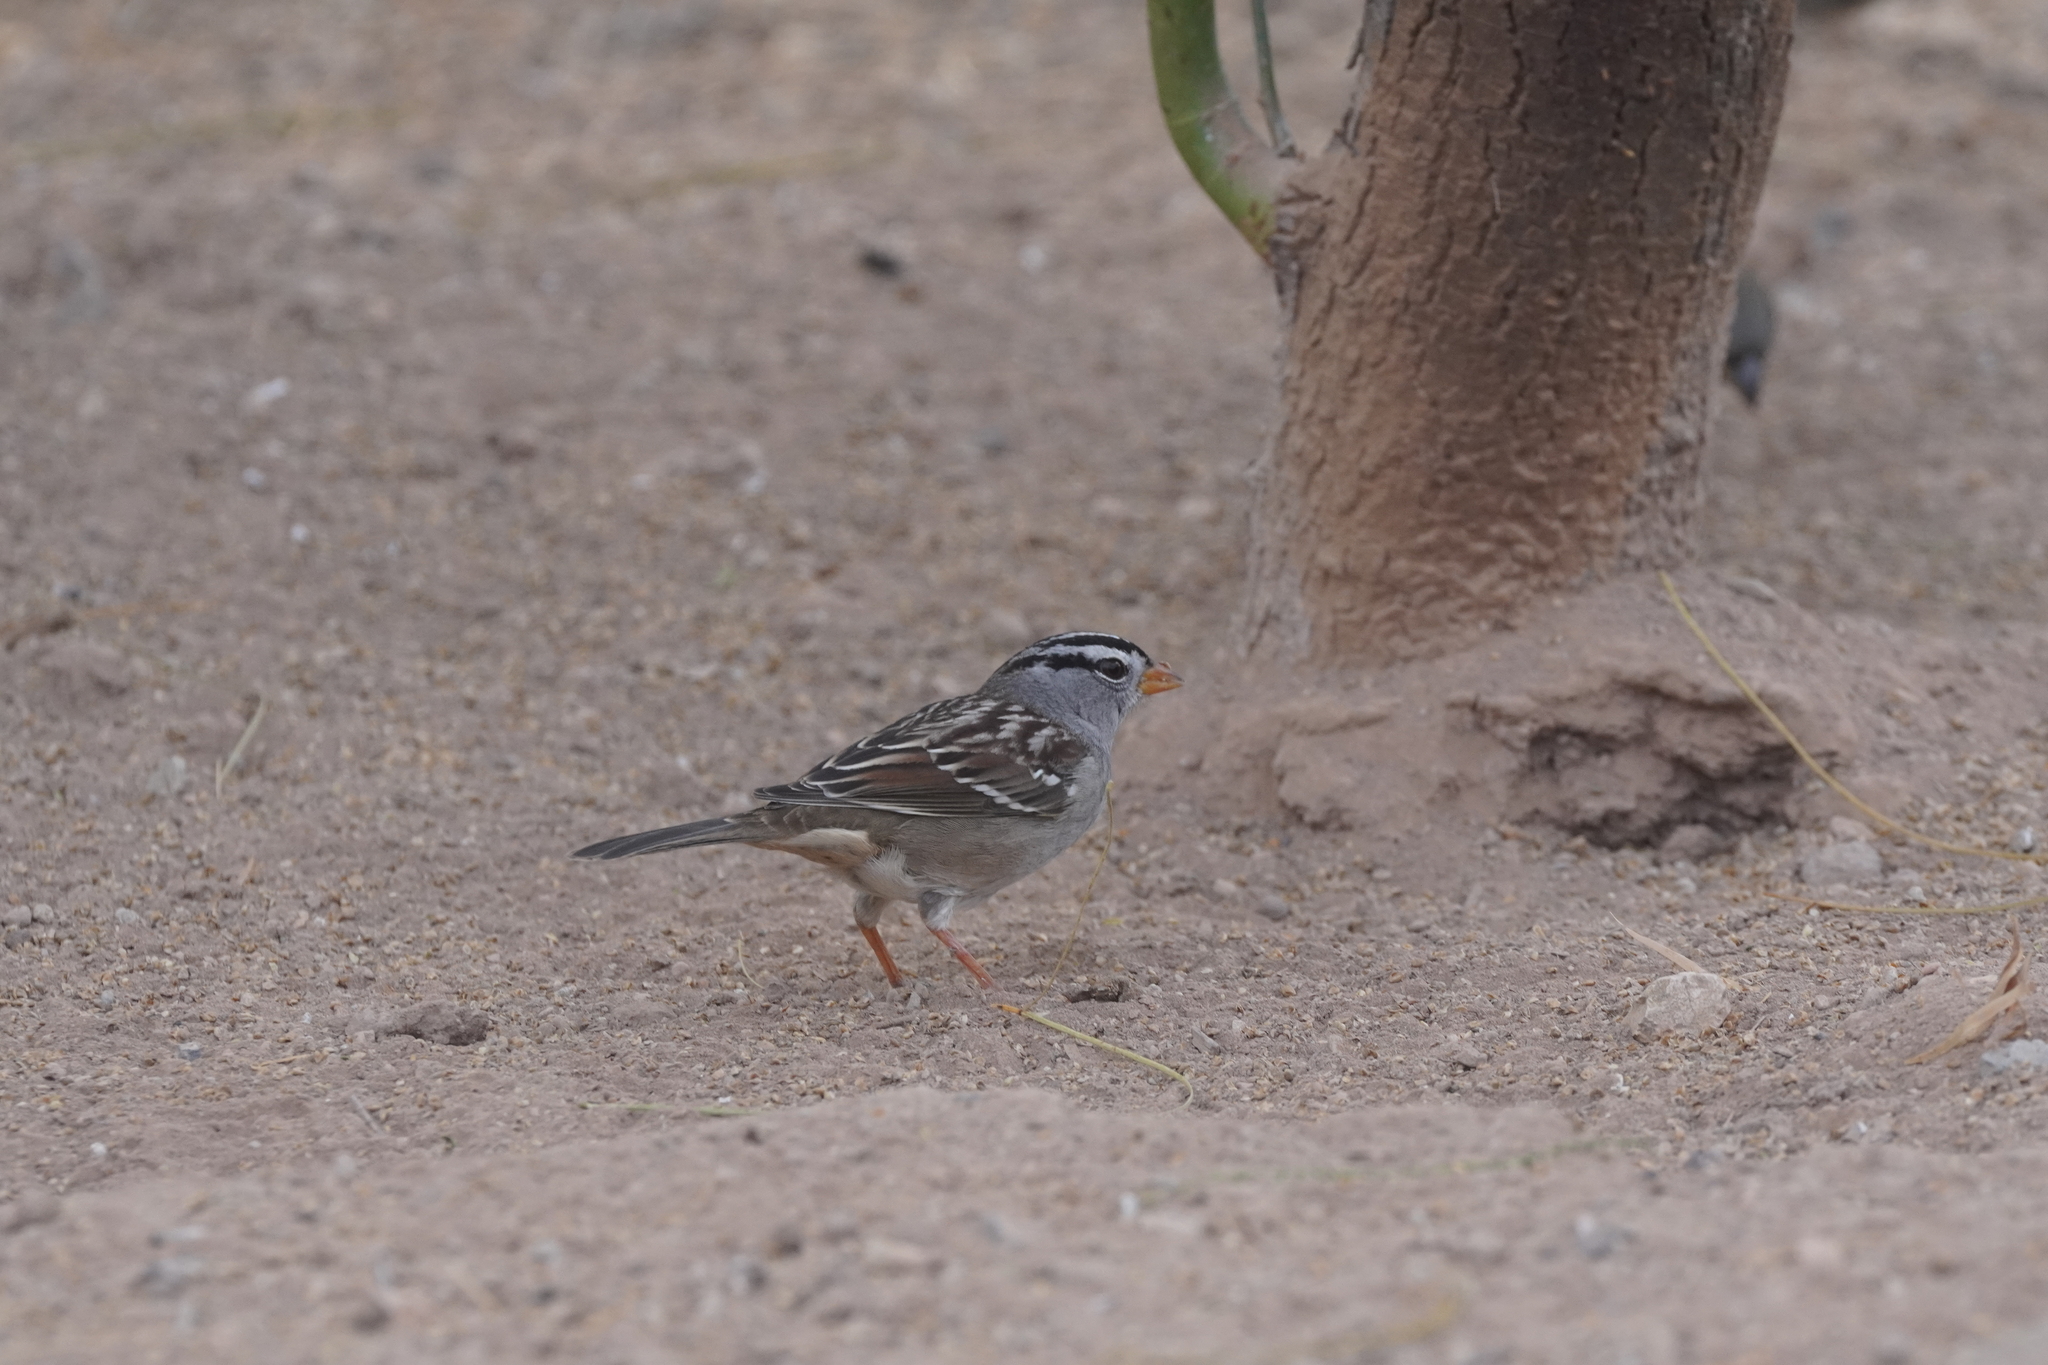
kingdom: Animalia
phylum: Chordata
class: Aves
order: Passeriformes
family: Passerellidae
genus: Zonotrichia
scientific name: Zonotrichia leucophrys
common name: White-crowned sparrow
